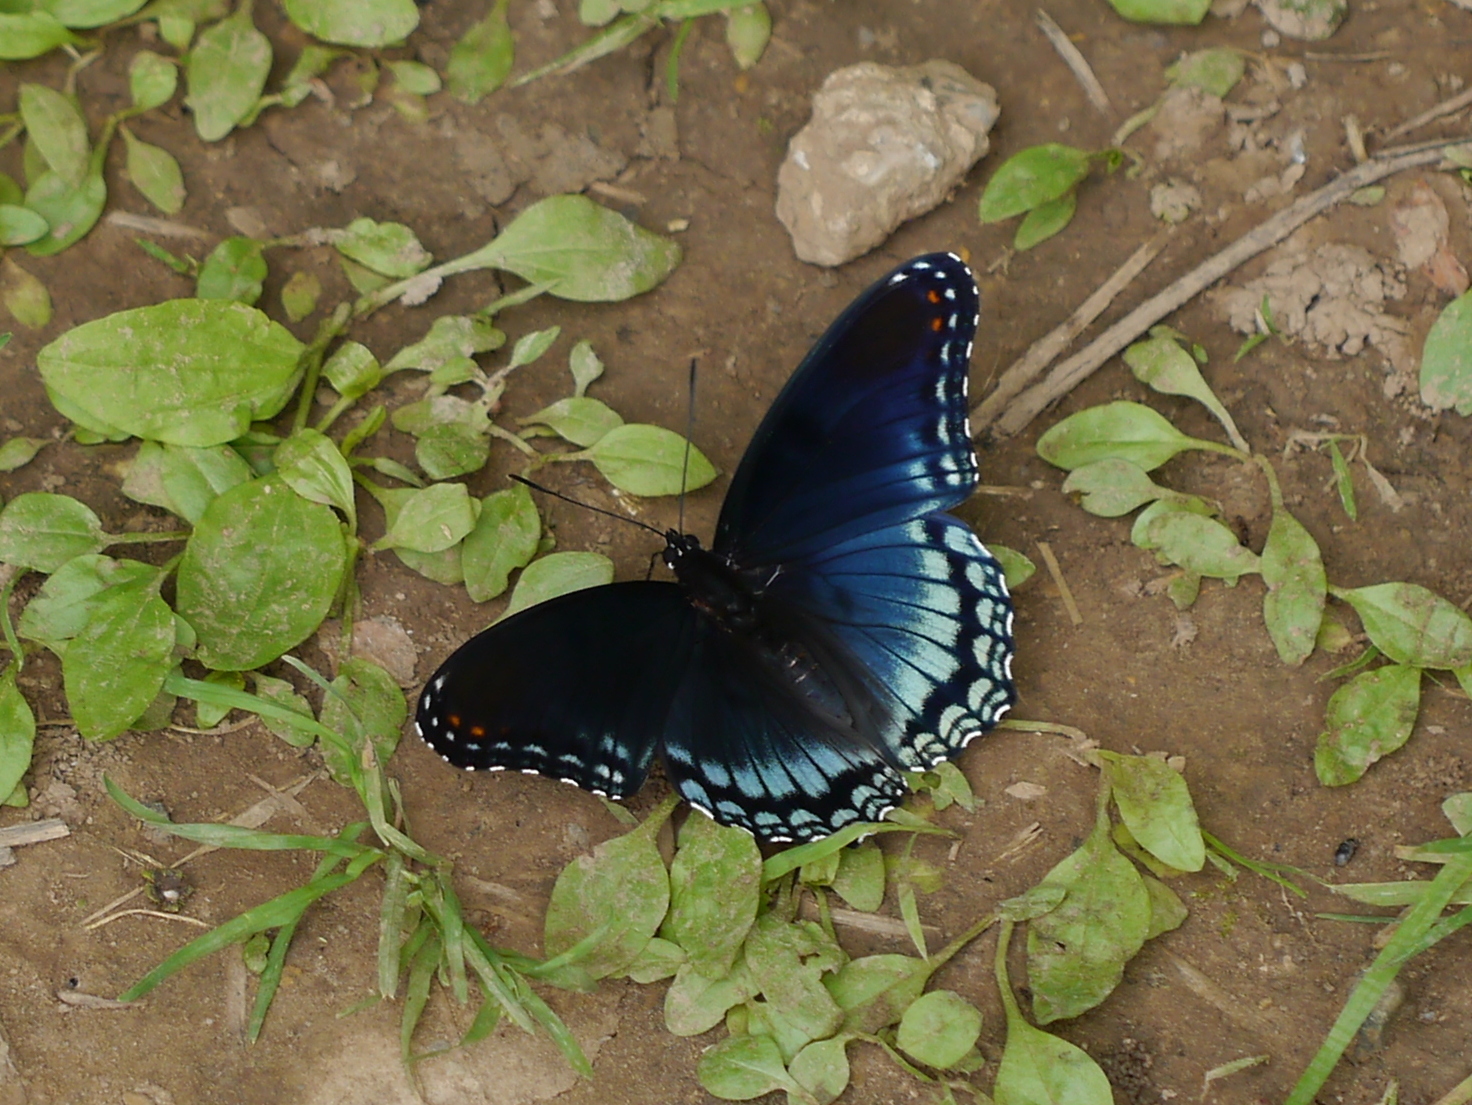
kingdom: Animalia
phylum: Arthropoda
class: Insecta
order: Lepidoptera
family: Nymphalidae
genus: Limenitis
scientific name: Limenitis astyanax
